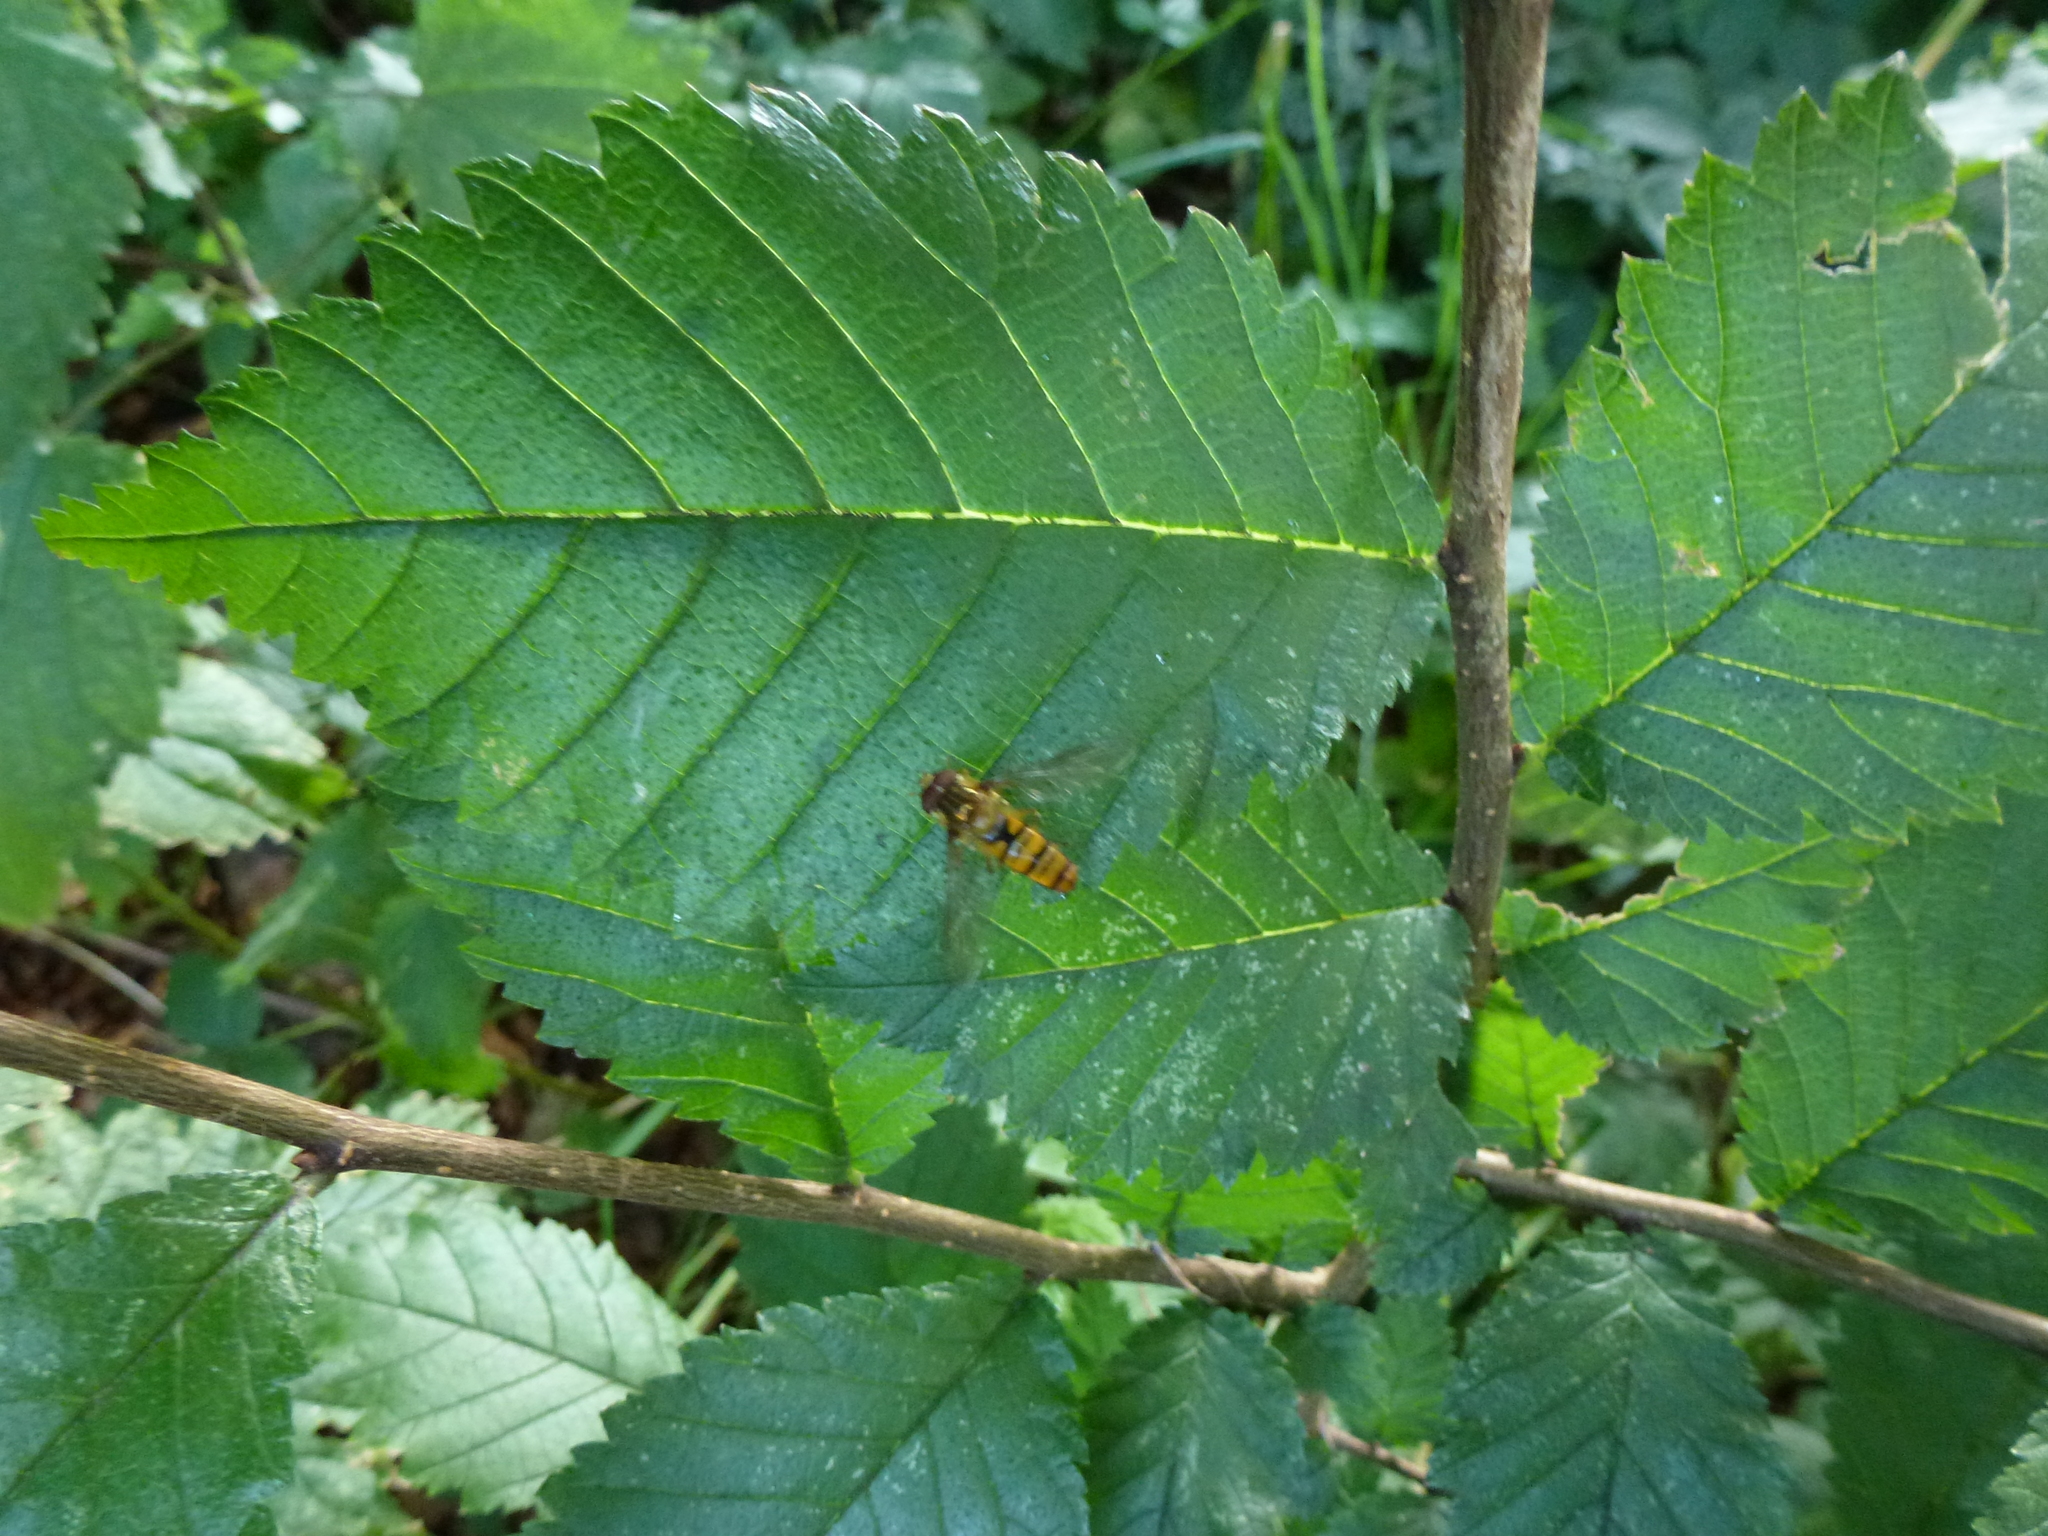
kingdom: Animalia
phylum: Arthropoda
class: Insecta
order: Diptera
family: Syrphidae
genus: Episyrphus
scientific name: Episyrphus balteatus
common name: Marmalade hoverfly
